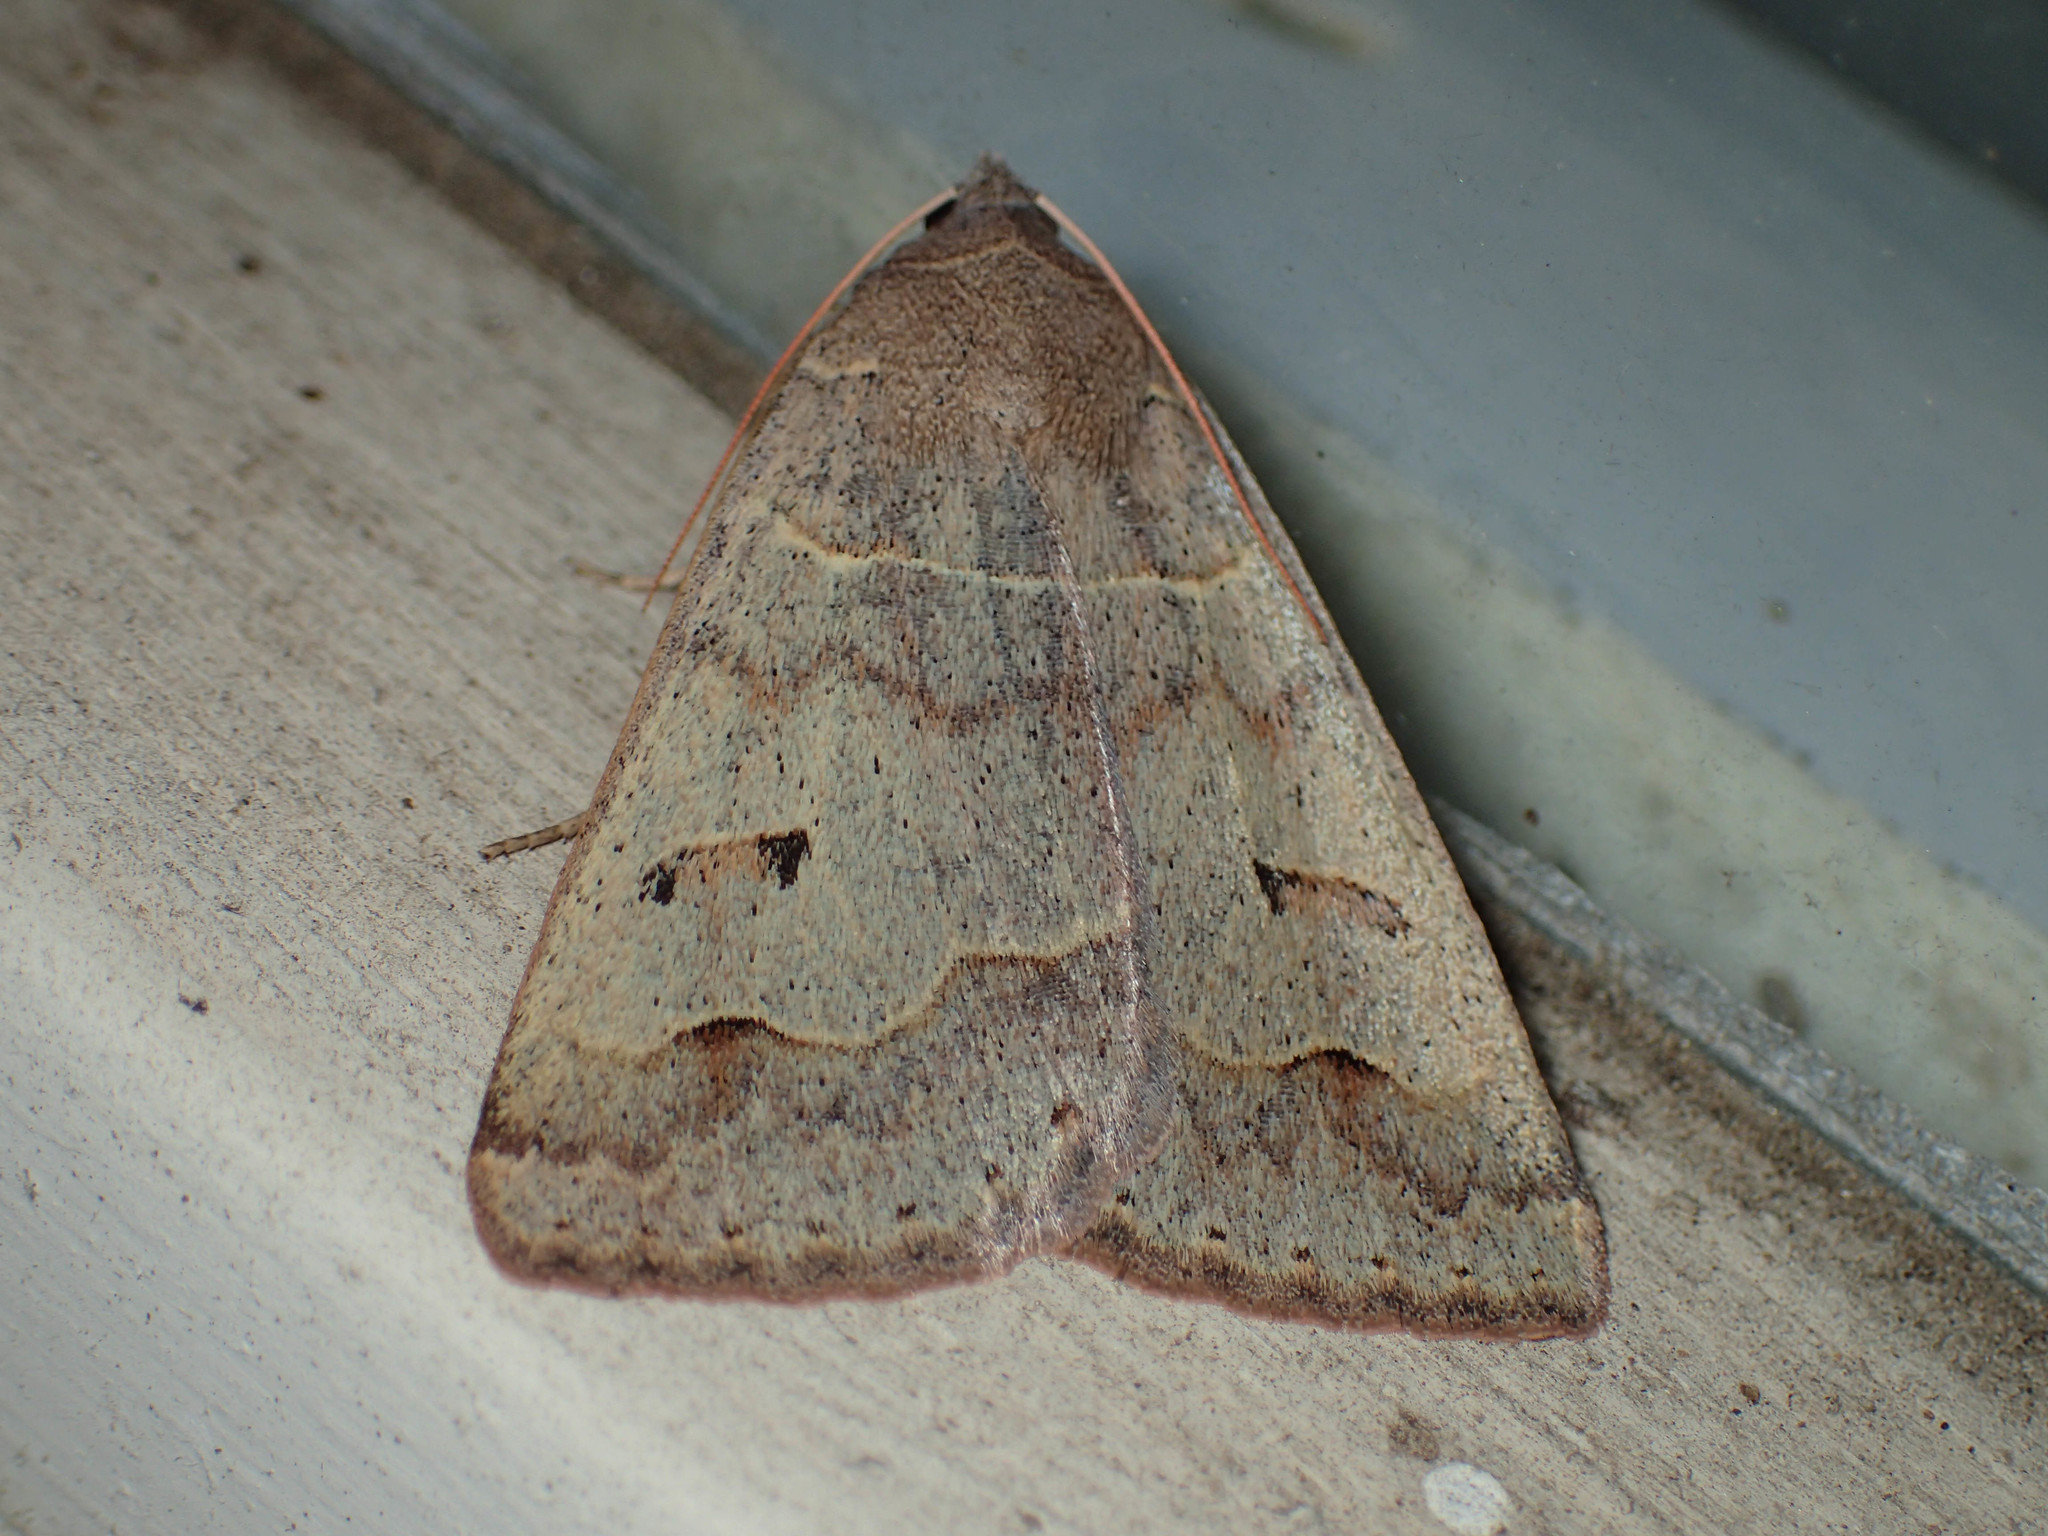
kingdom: Animalia
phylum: Arthropoda
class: Insecta
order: Lepidoptera
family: Erebidae
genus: Phoberia
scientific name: Phoberia atomaris
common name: Common oak moth
